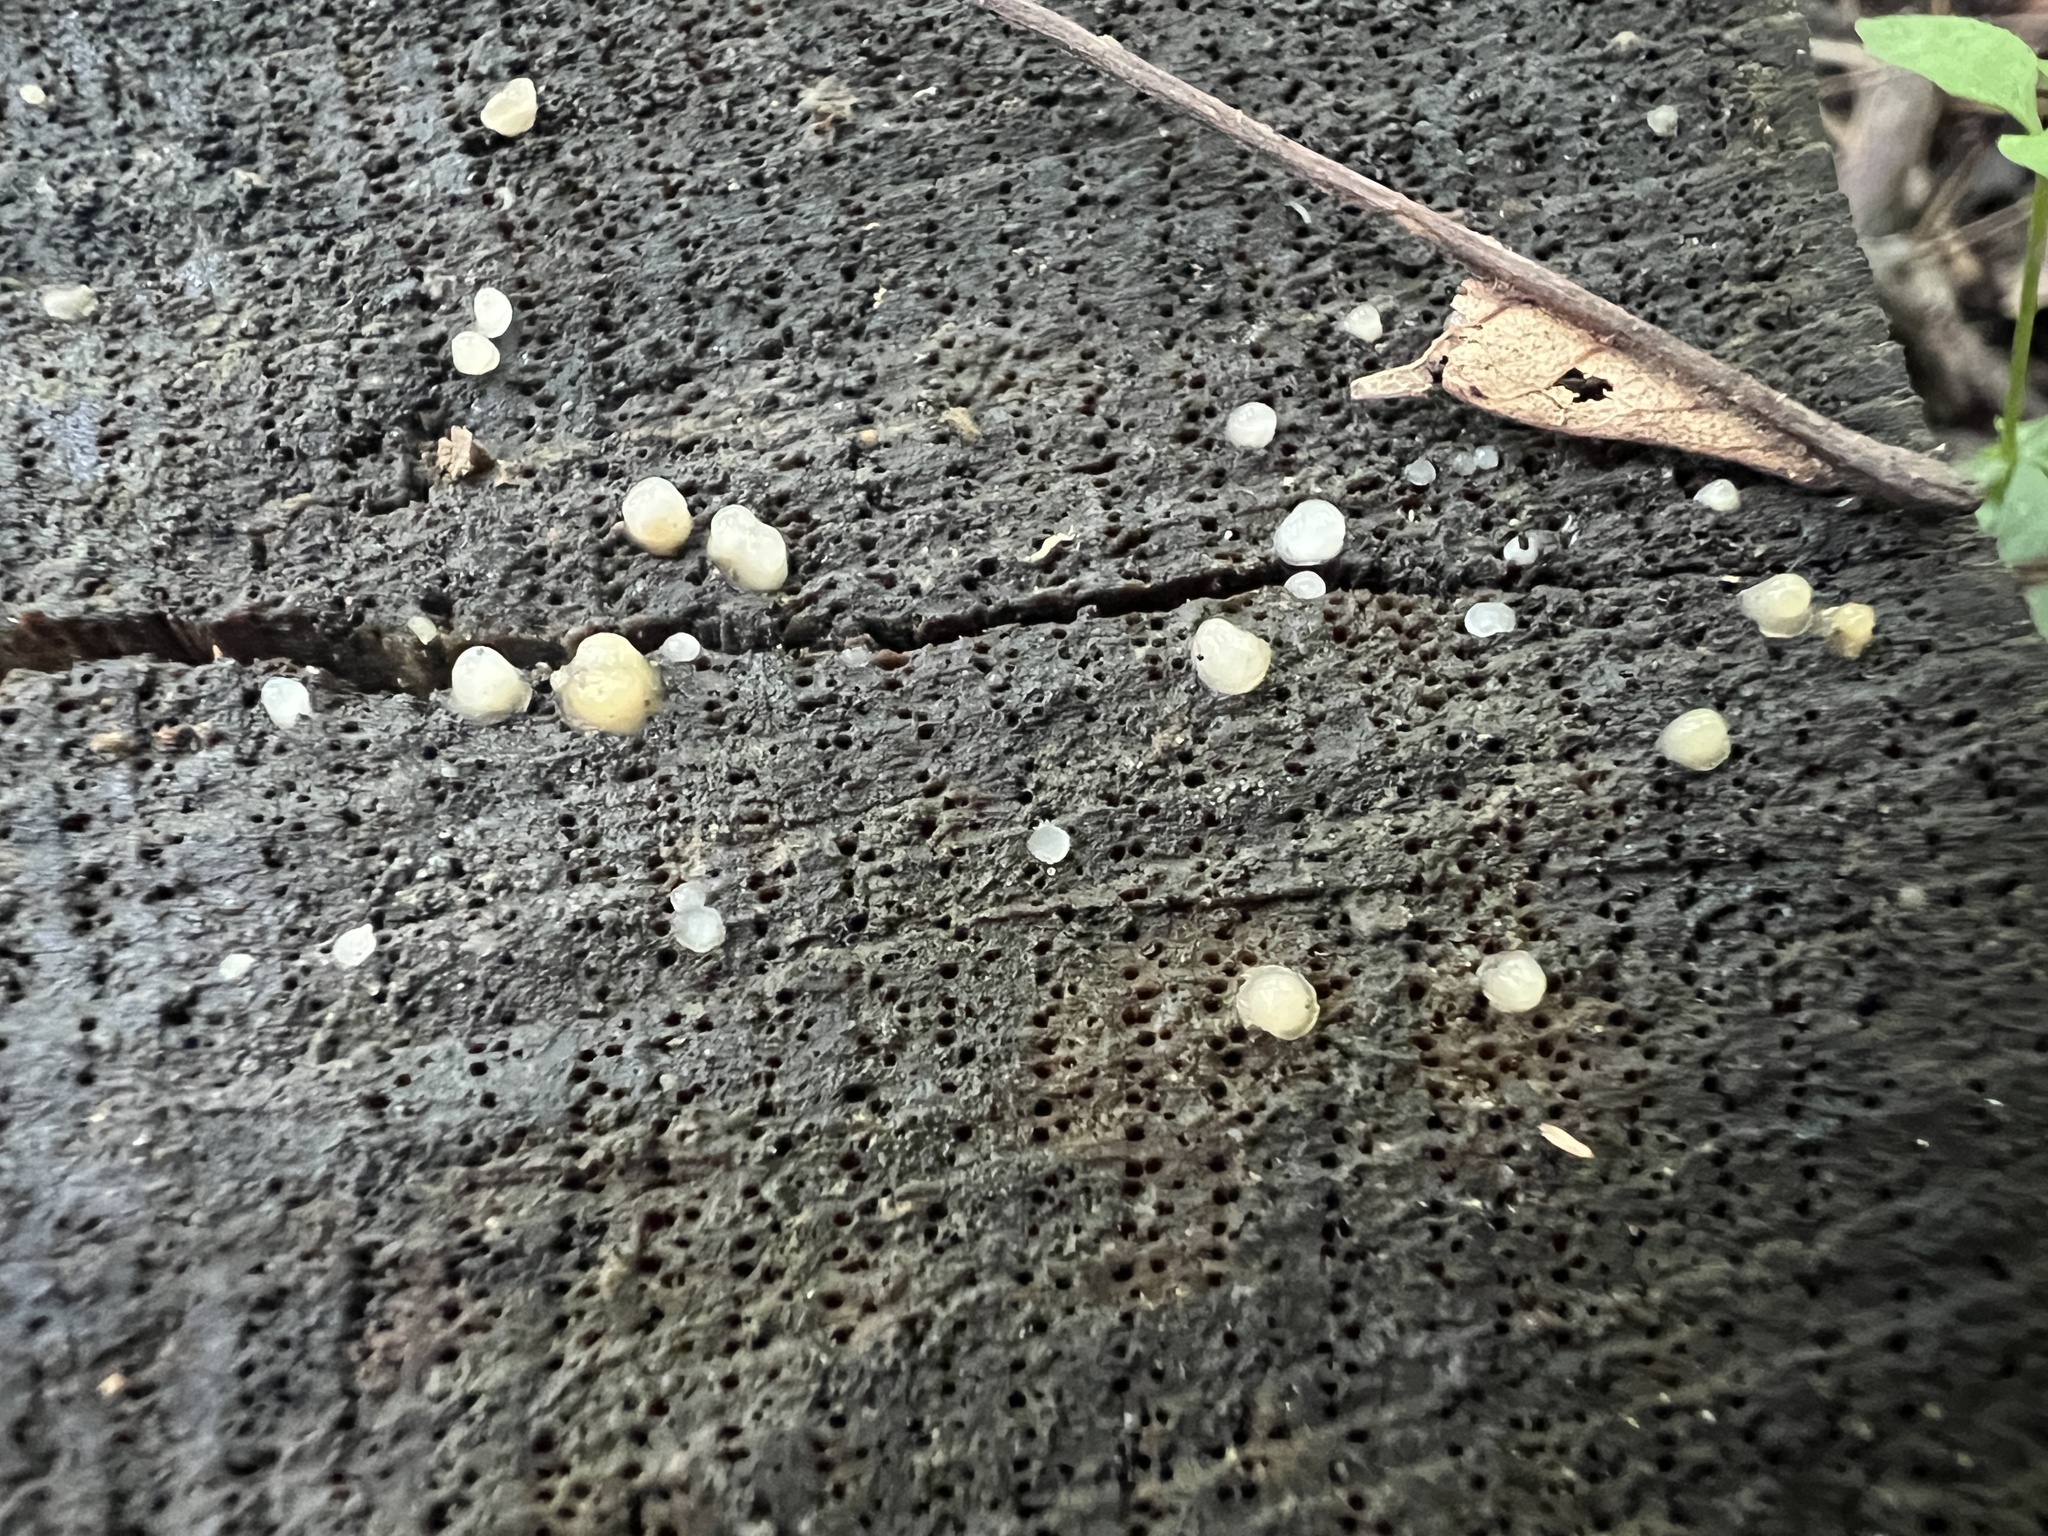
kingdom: Fungi
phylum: Basidiomycota
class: Atractiellomycetes
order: Atractiellales
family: Phleogenaceae
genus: Helicogloea
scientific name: Helicogloea compressa
